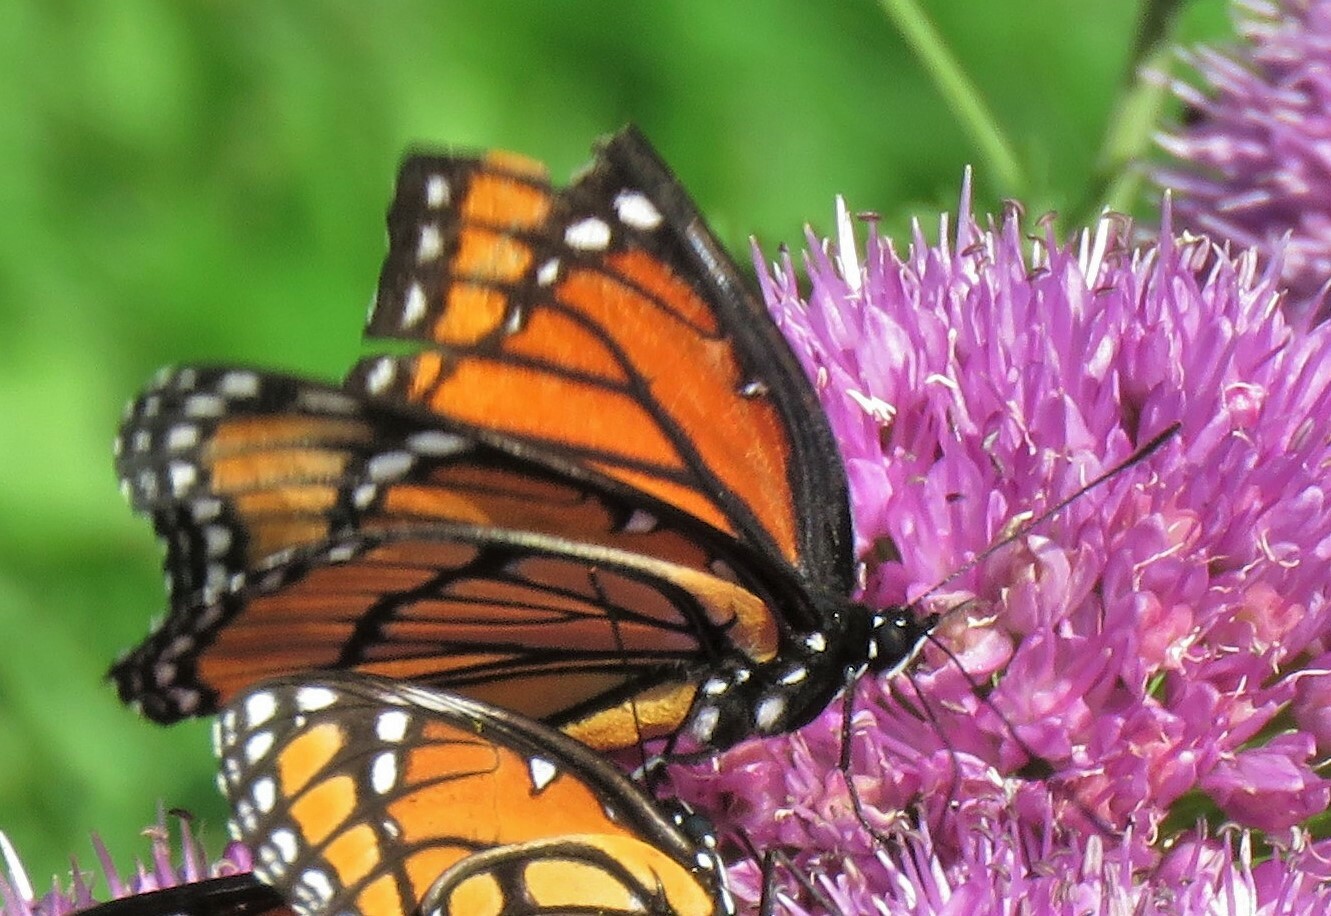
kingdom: Animalia
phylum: Arthropoda
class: Insecta
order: Lepidoptera
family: Nymphalidae
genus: Limenitis
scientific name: Limenitis archippus
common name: Viceroy
